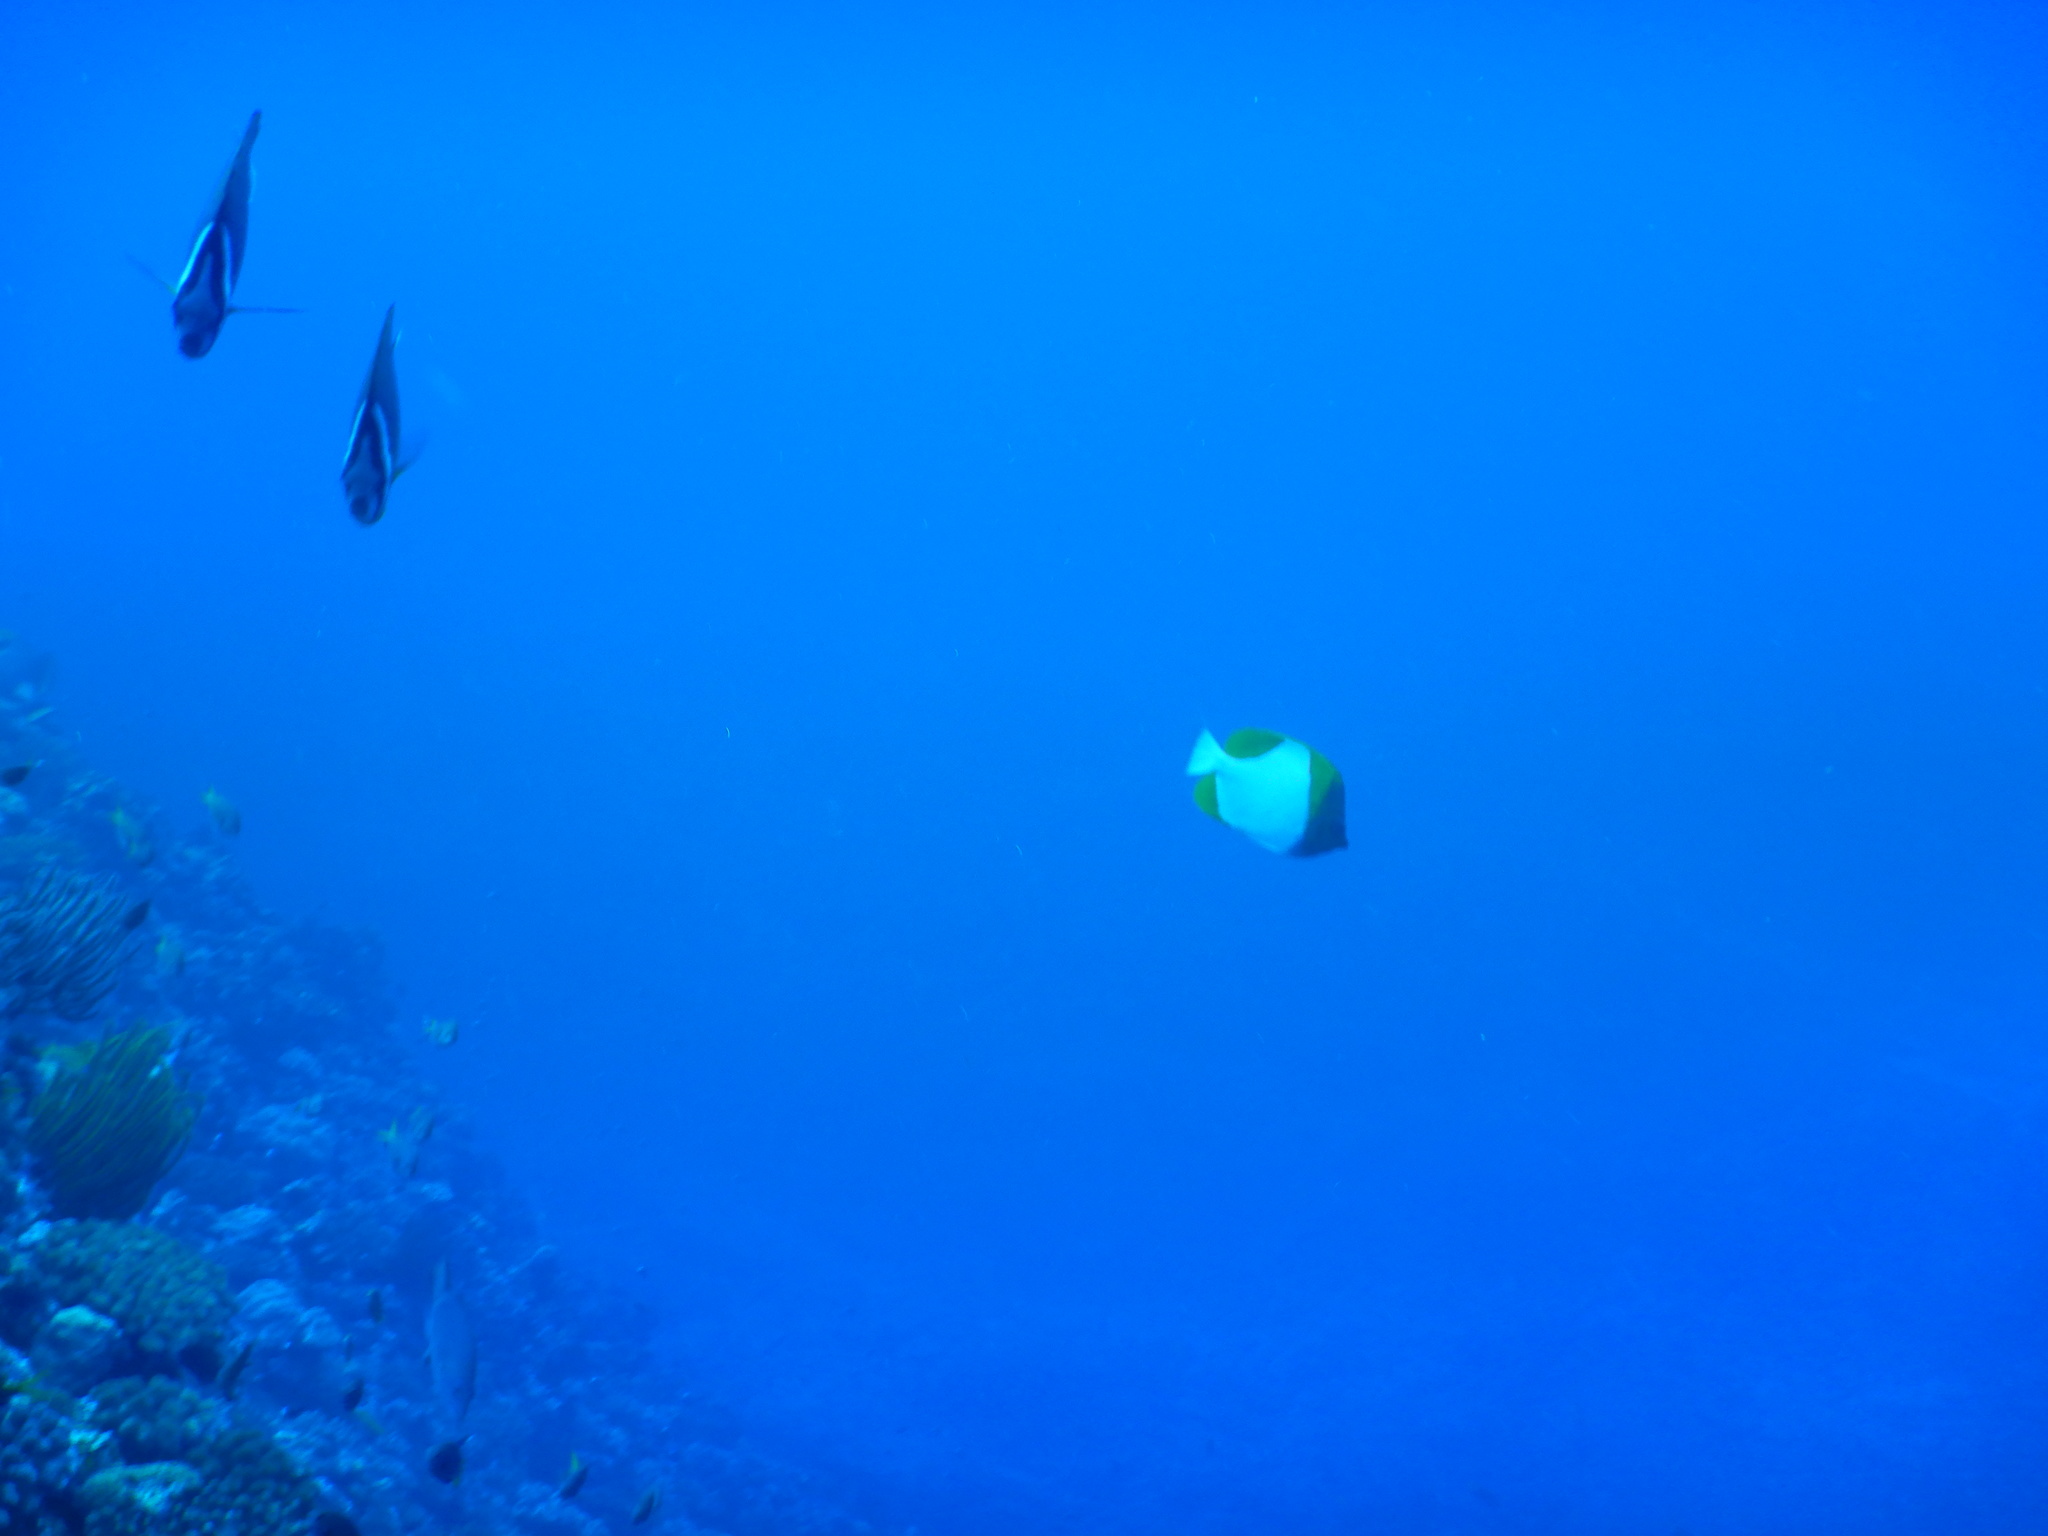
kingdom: Animalia
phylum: Chordata
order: Perciformes
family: Chaetodontidae
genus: Hemitaurichthys
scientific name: Hemitaurichthys polylepis
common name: Brushytoothed butterflyfish
